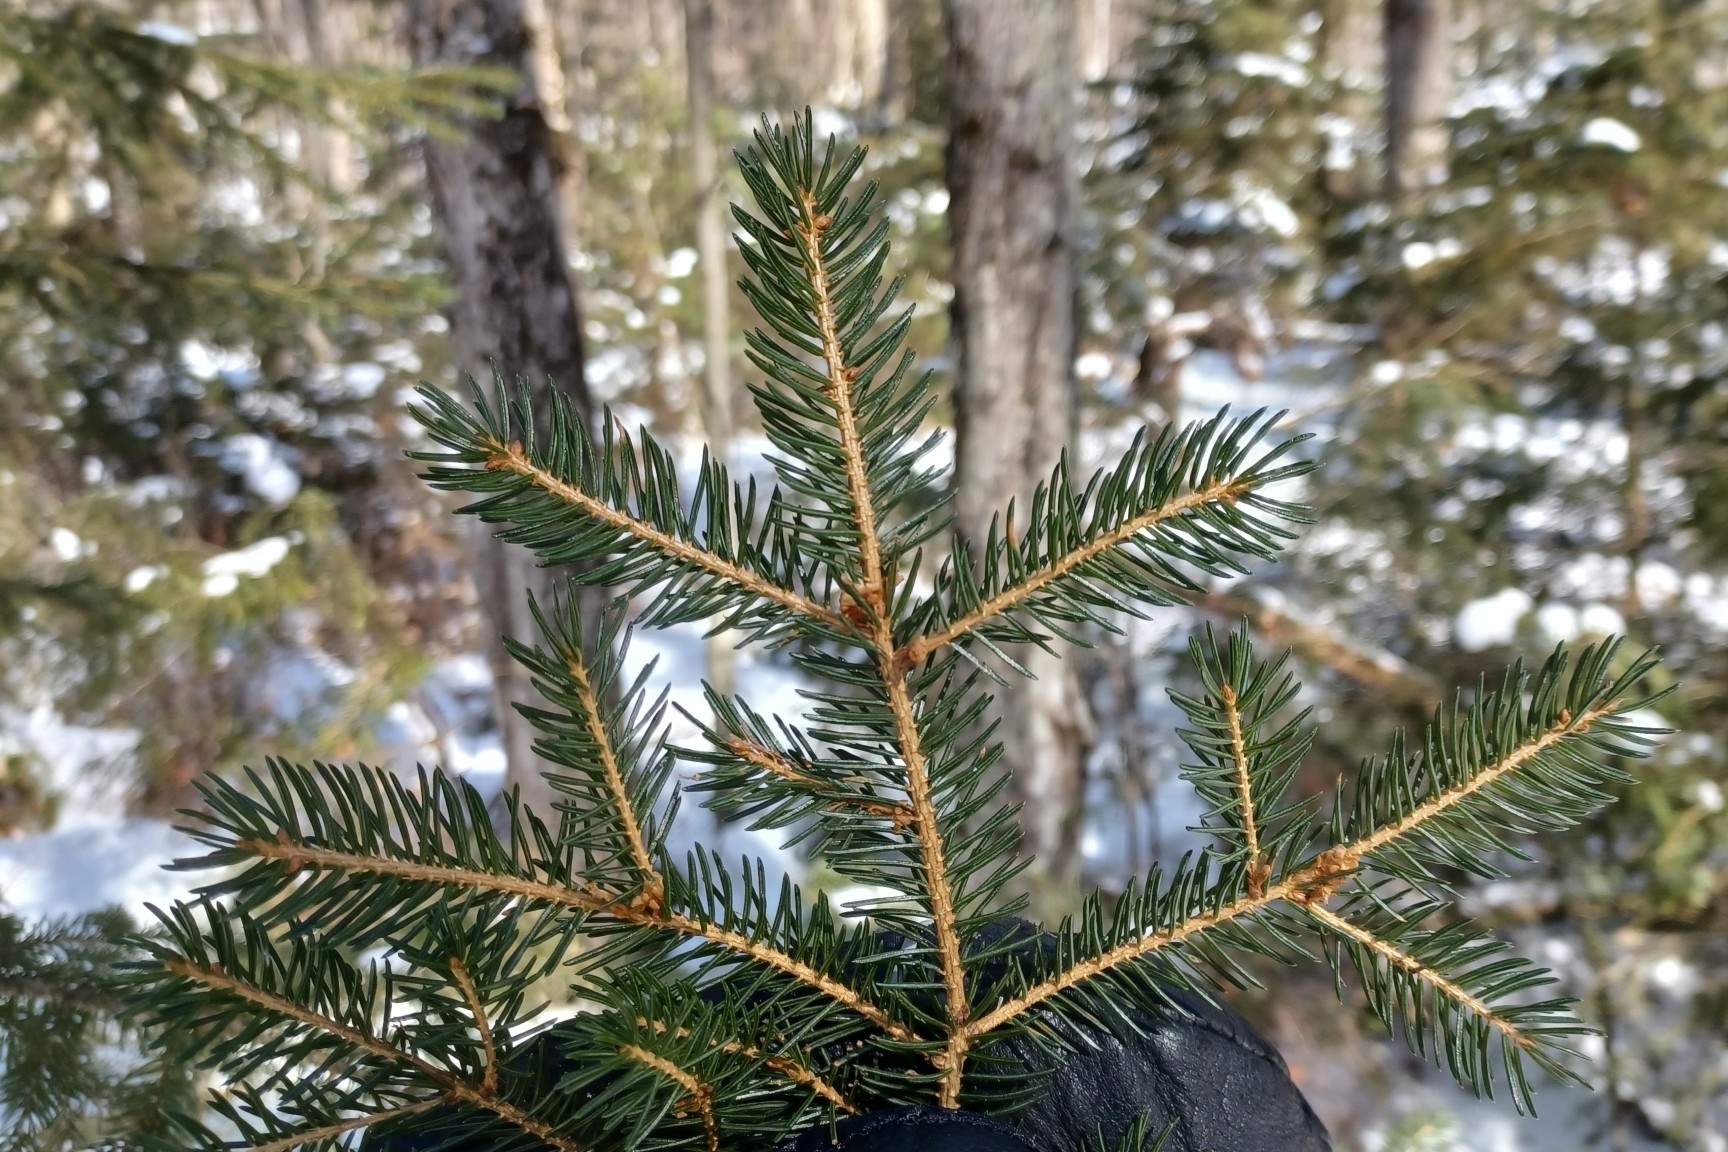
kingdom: Plantae
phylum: Tracheophyta
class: Pinopsida
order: Pinales
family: Pinaceae
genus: Picea
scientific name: Picea rubens
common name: Red spruce
